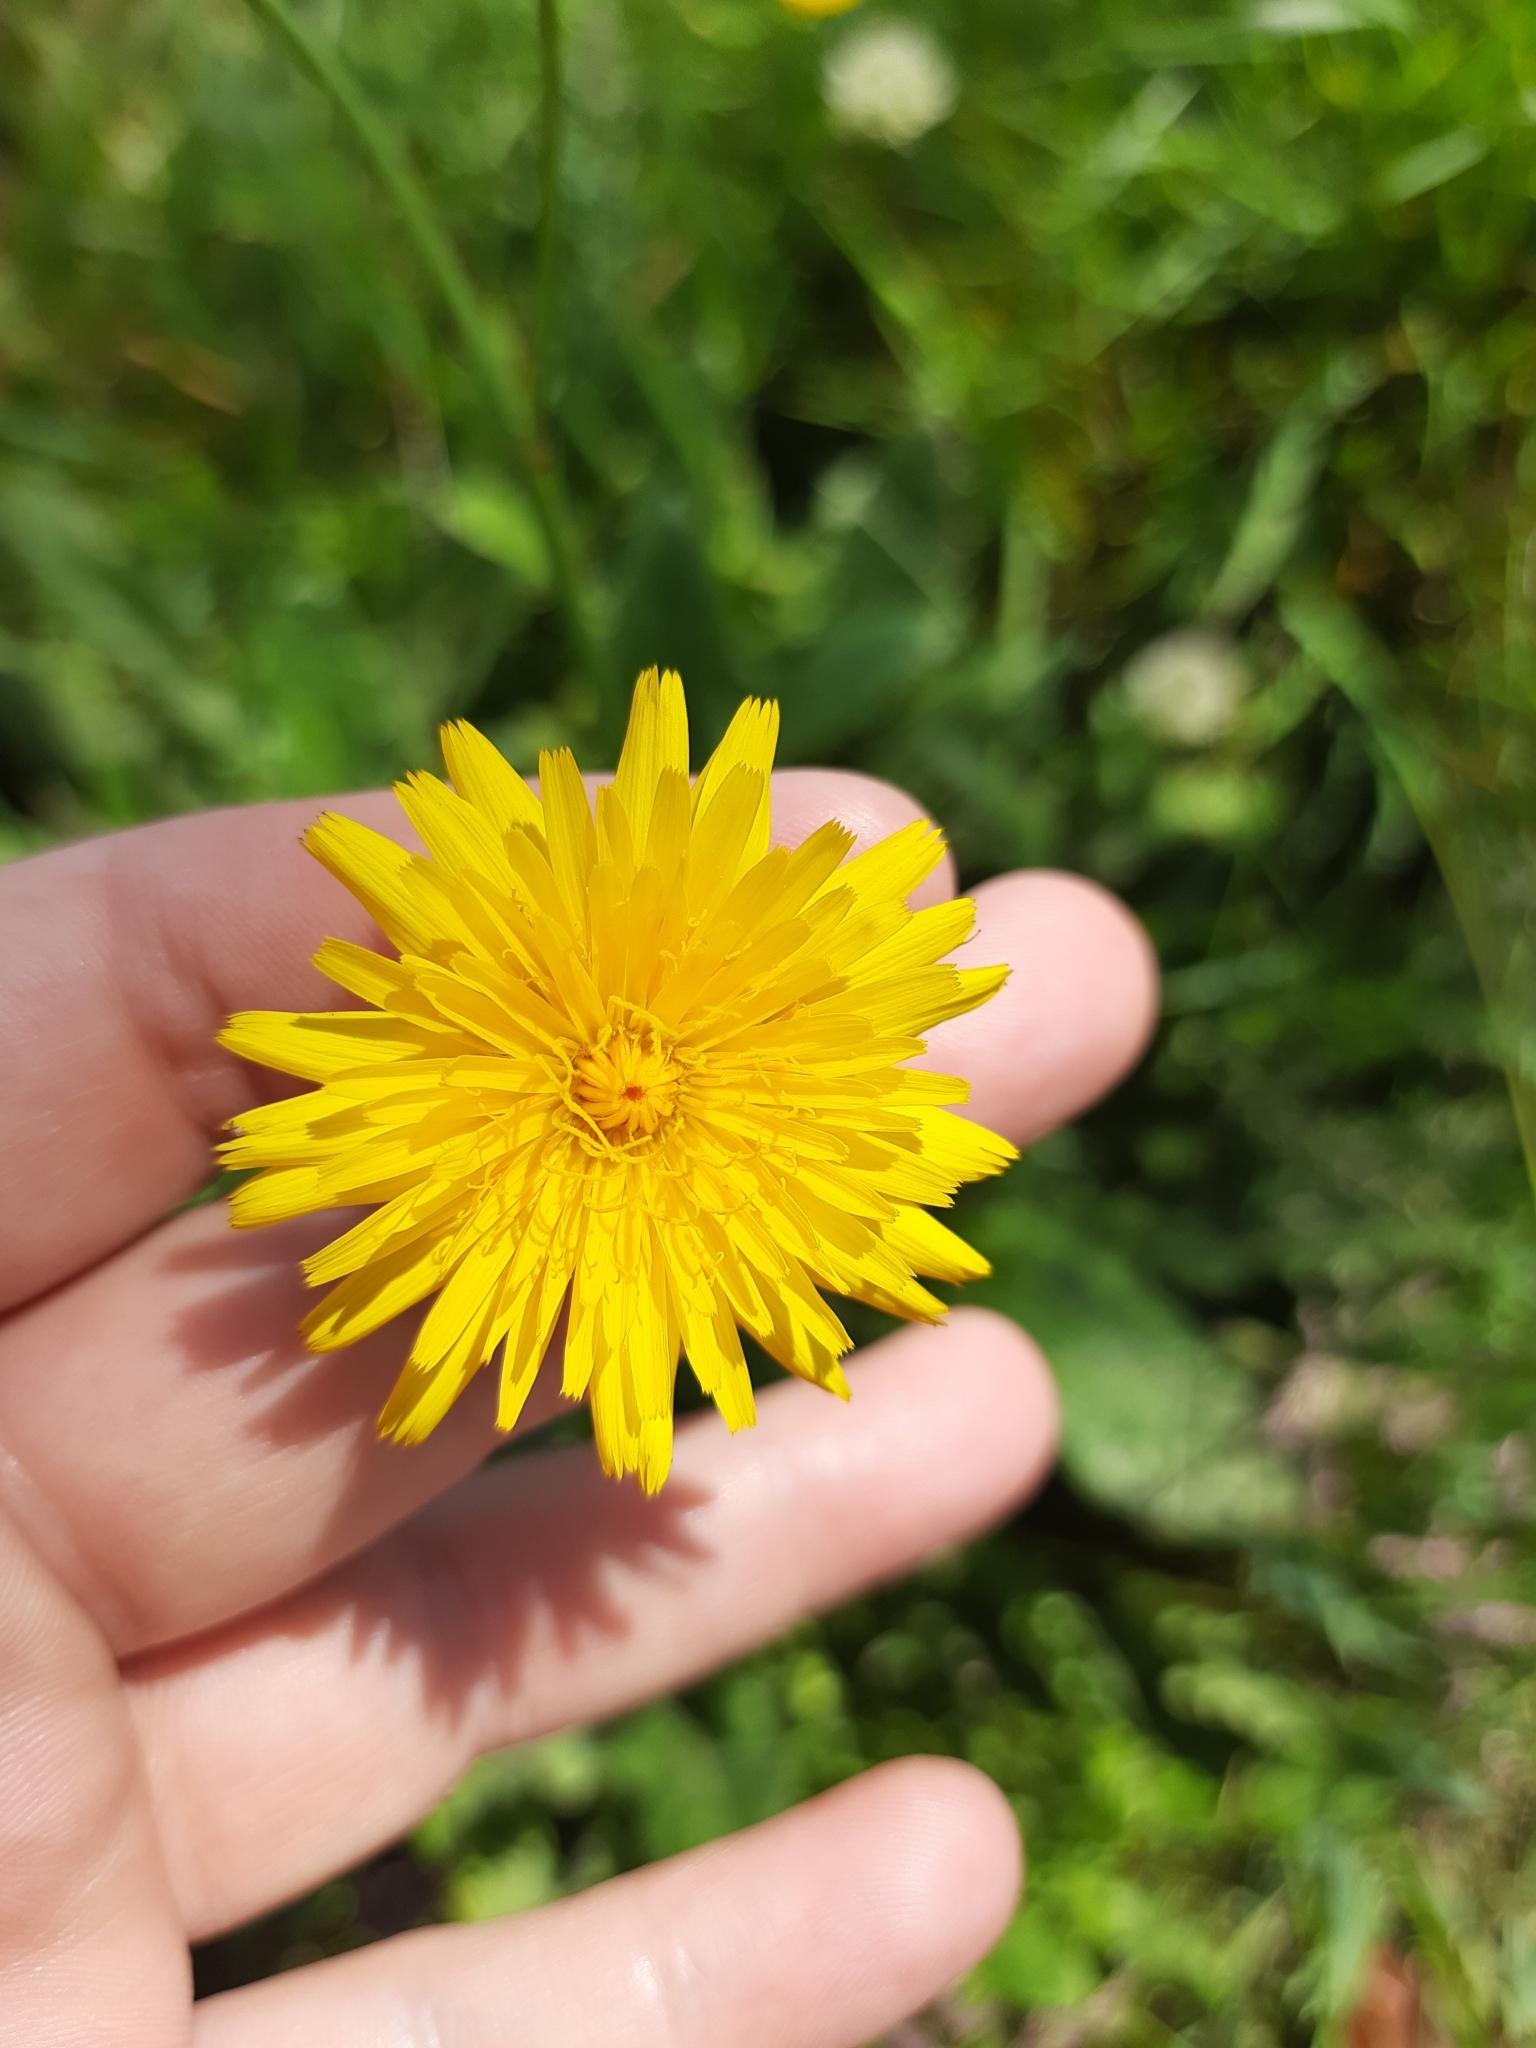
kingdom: Plantae
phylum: Tracheophyta
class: Magnoliopsida
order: Asterales
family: Asteraceae
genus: Hypochaeris
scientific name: Hypochaeris radicata
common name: Flatweed
